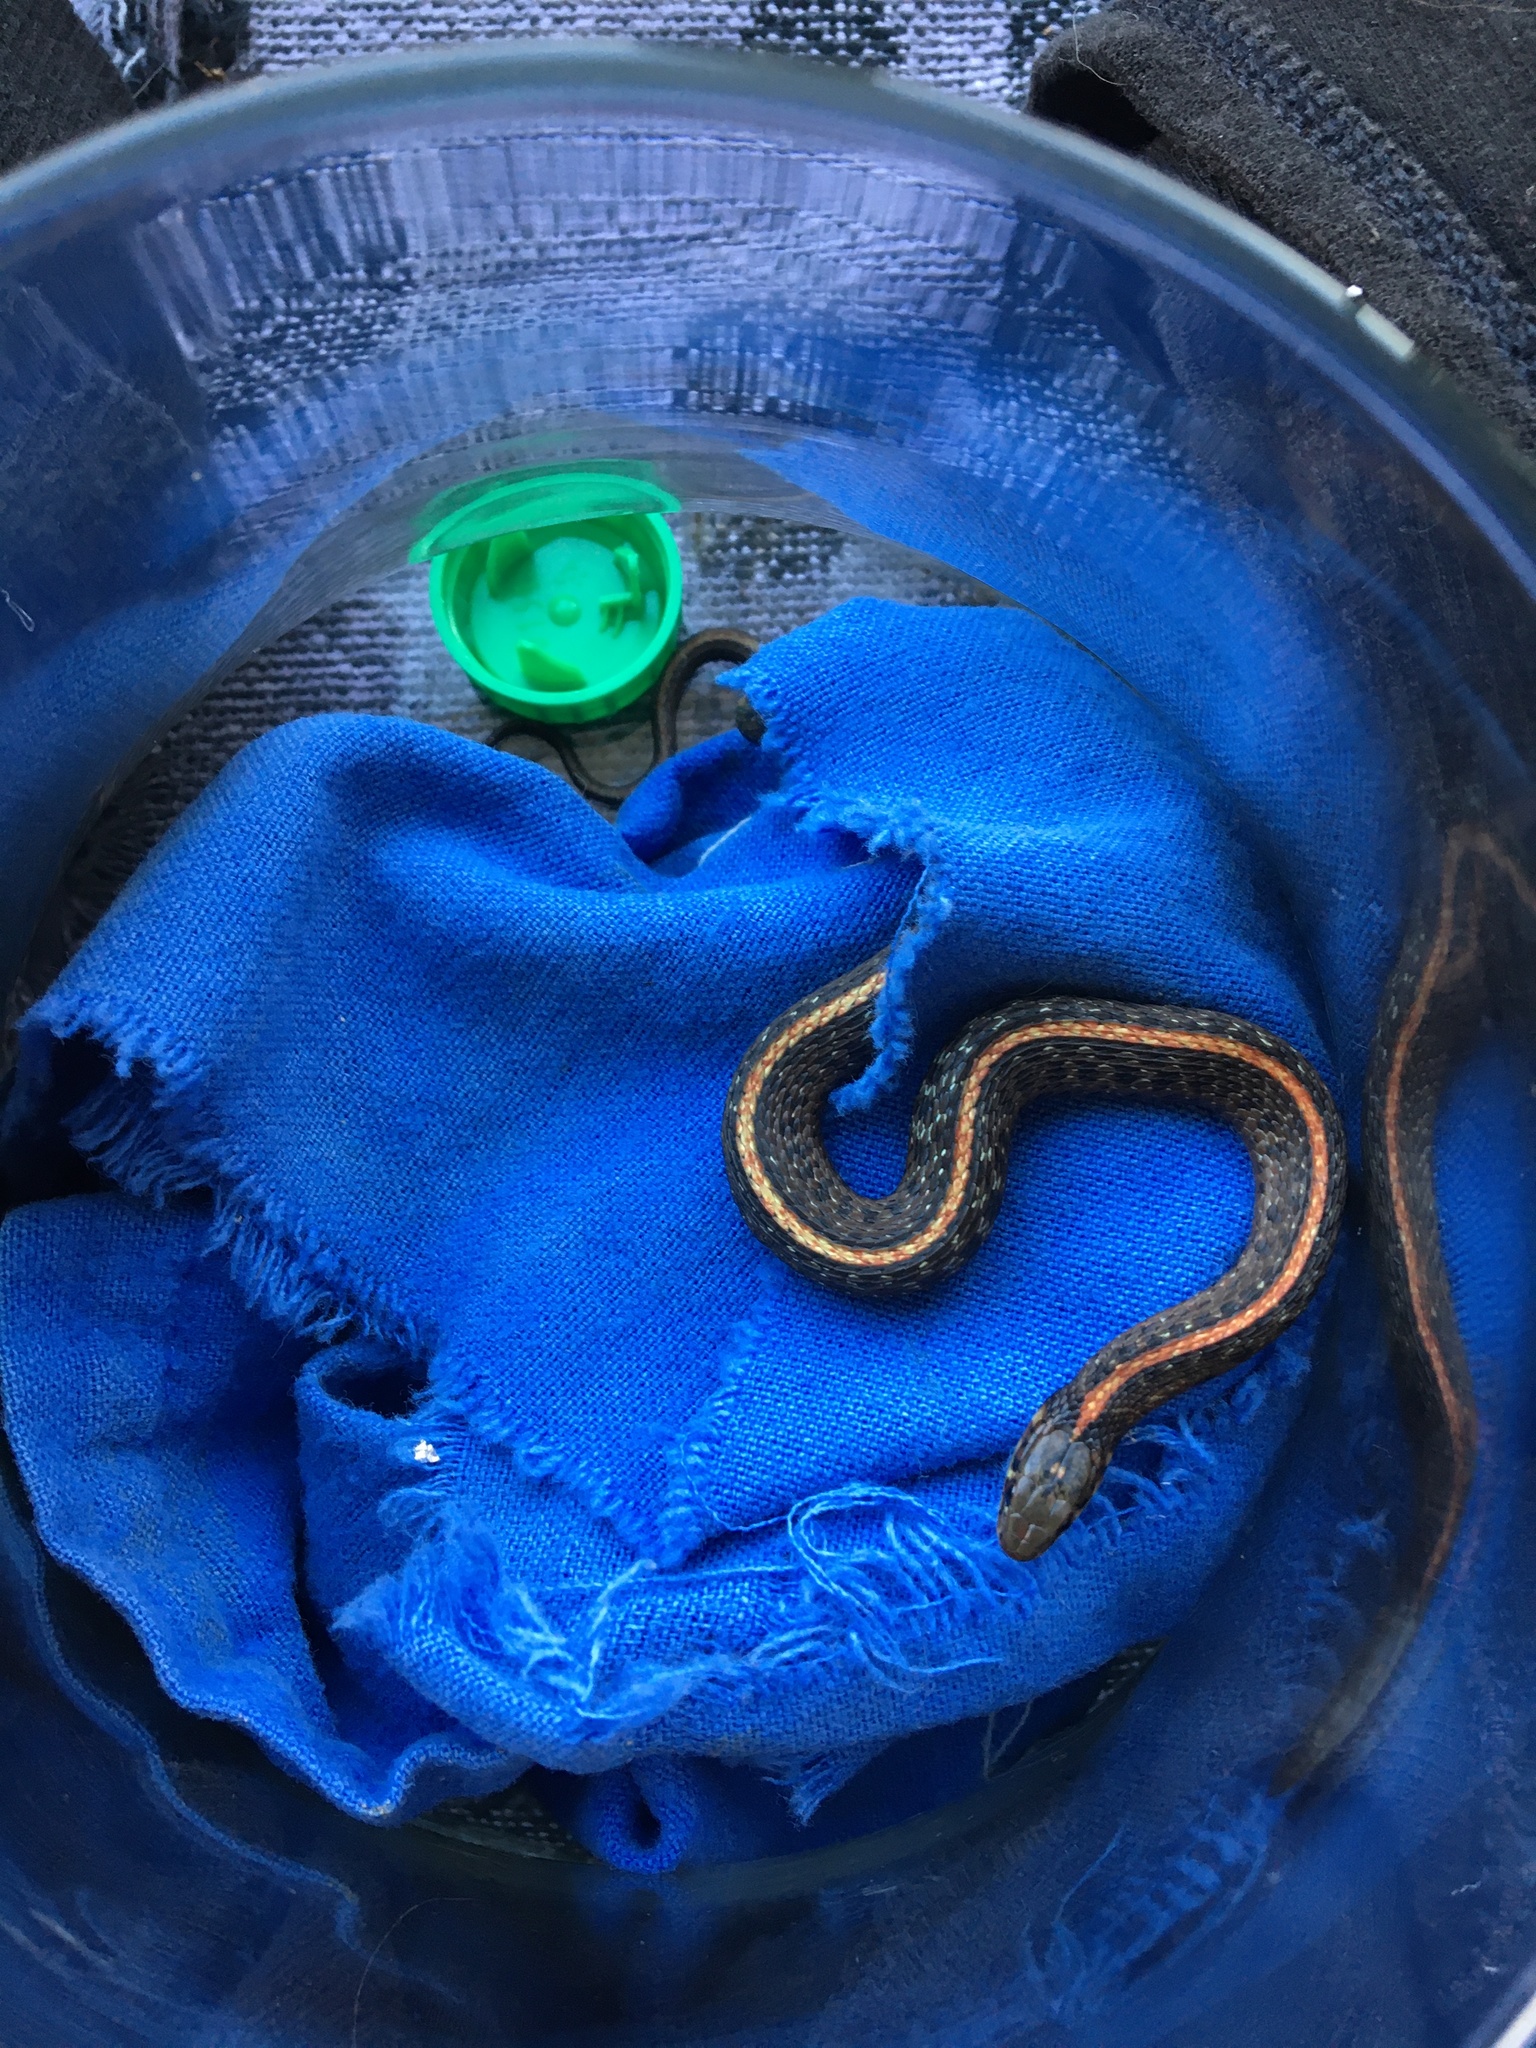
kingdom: Animalia
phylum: Chordata
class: Squamata
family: Colubridae
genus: Thamnophis
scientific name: Thamnophis ordinoides
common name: Northwestern garter snake
